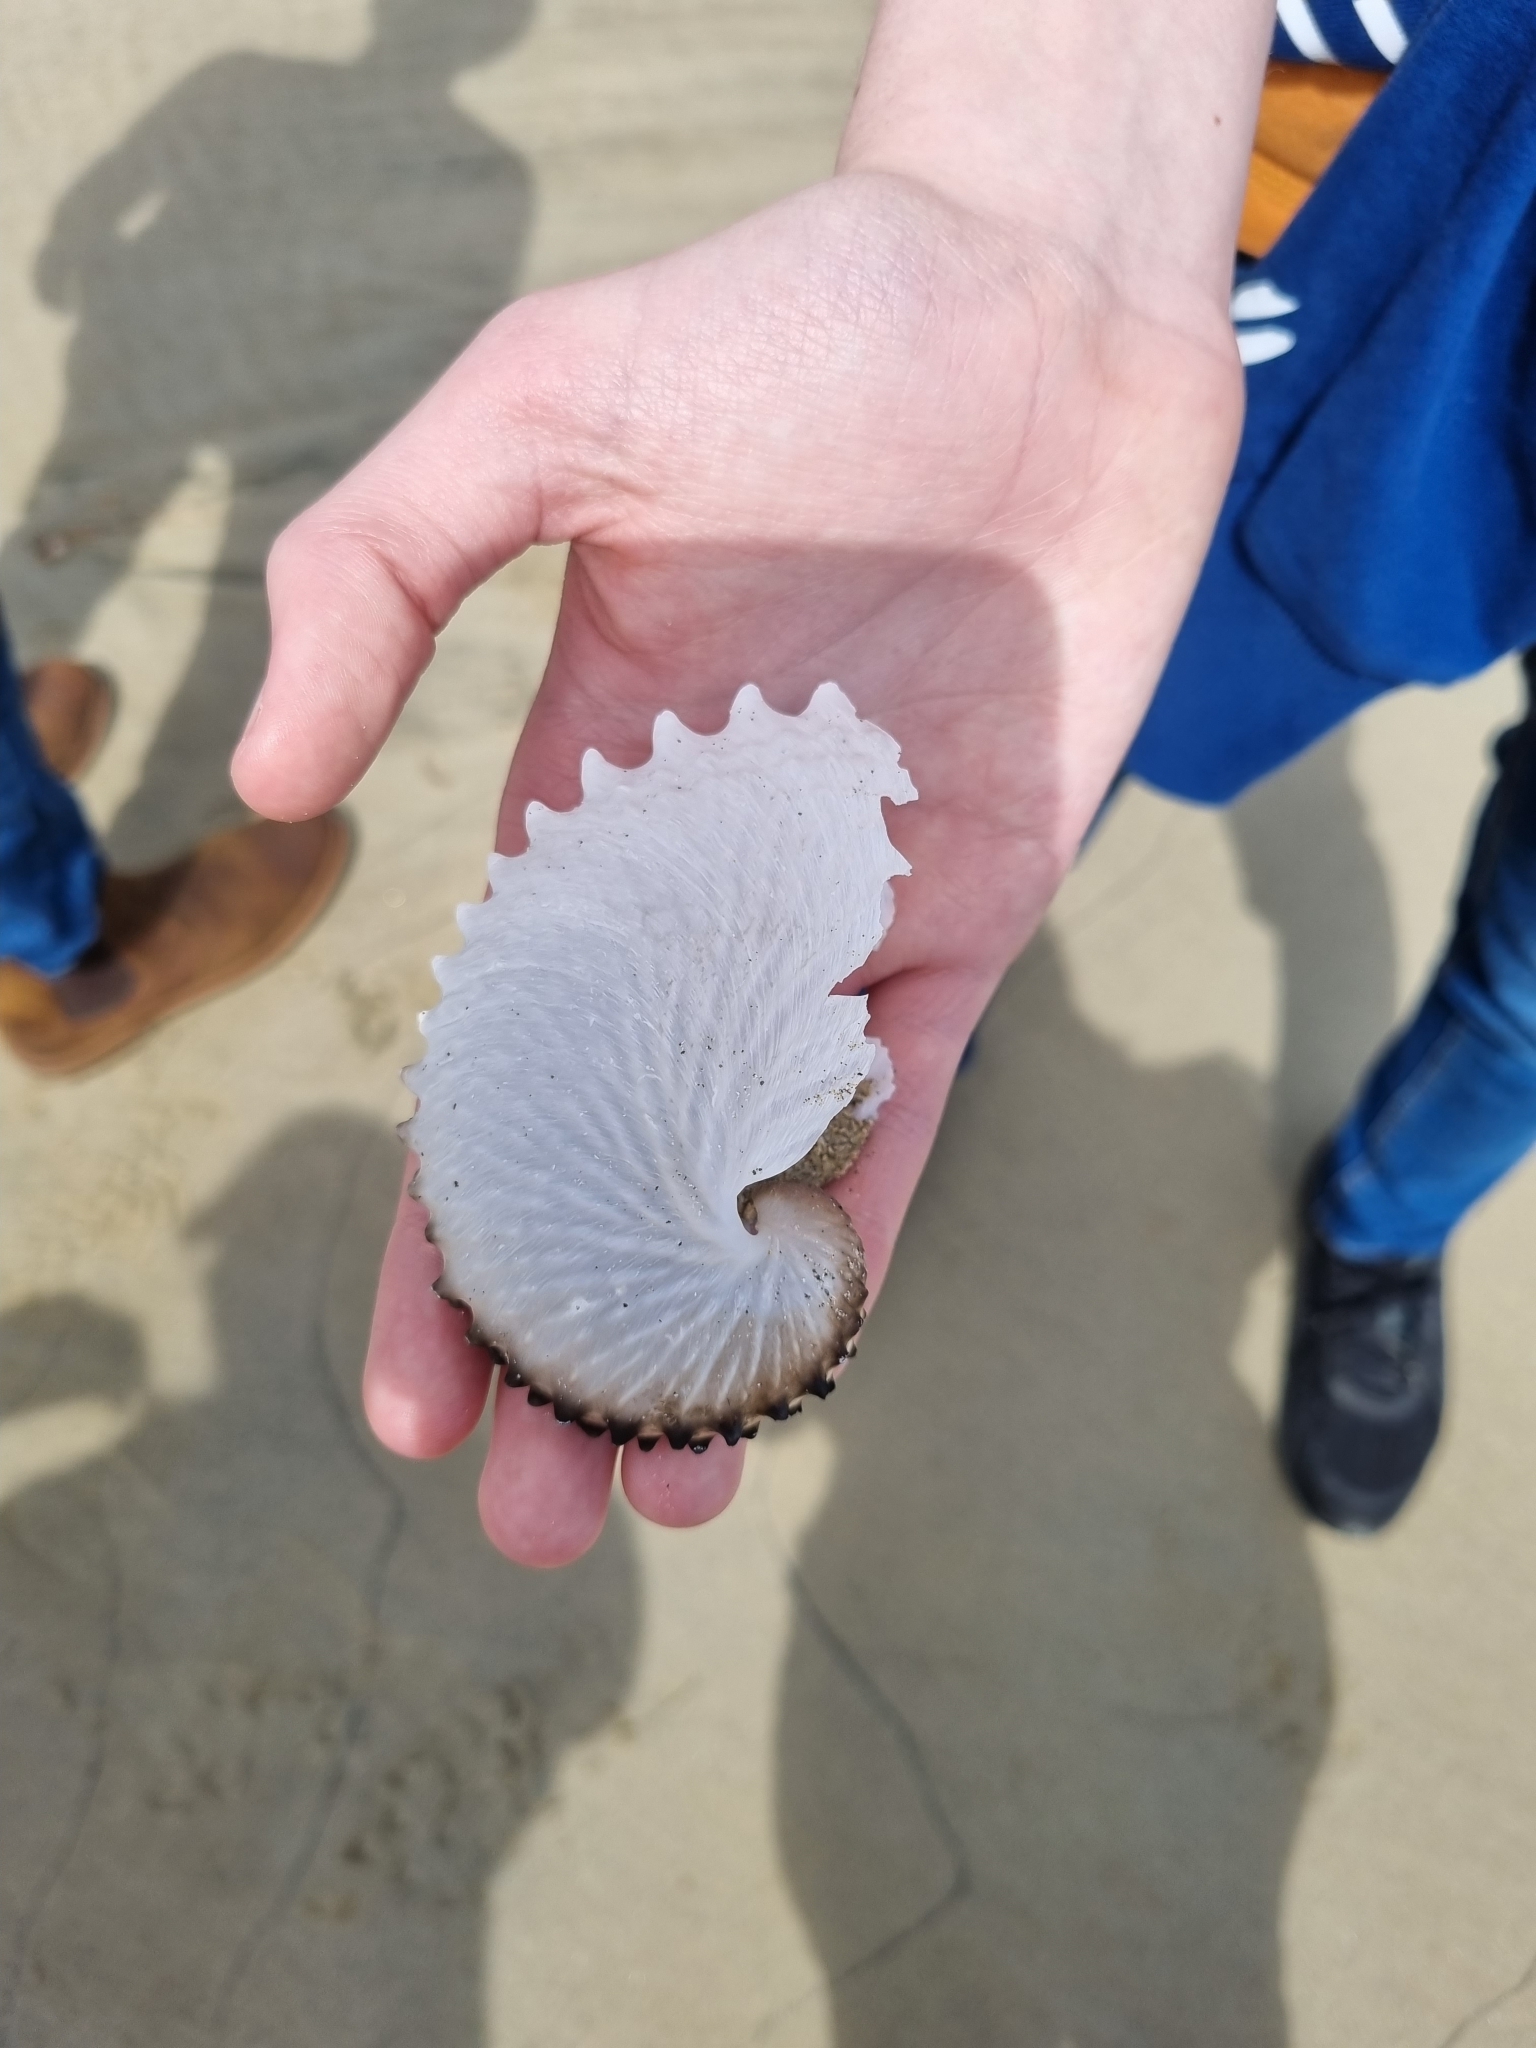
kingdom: Animalia
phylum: Mollusca
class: Cephalopoda
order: Octopoda
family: Argonautidae
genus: Argonauta
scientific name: Argonauta nodosus
